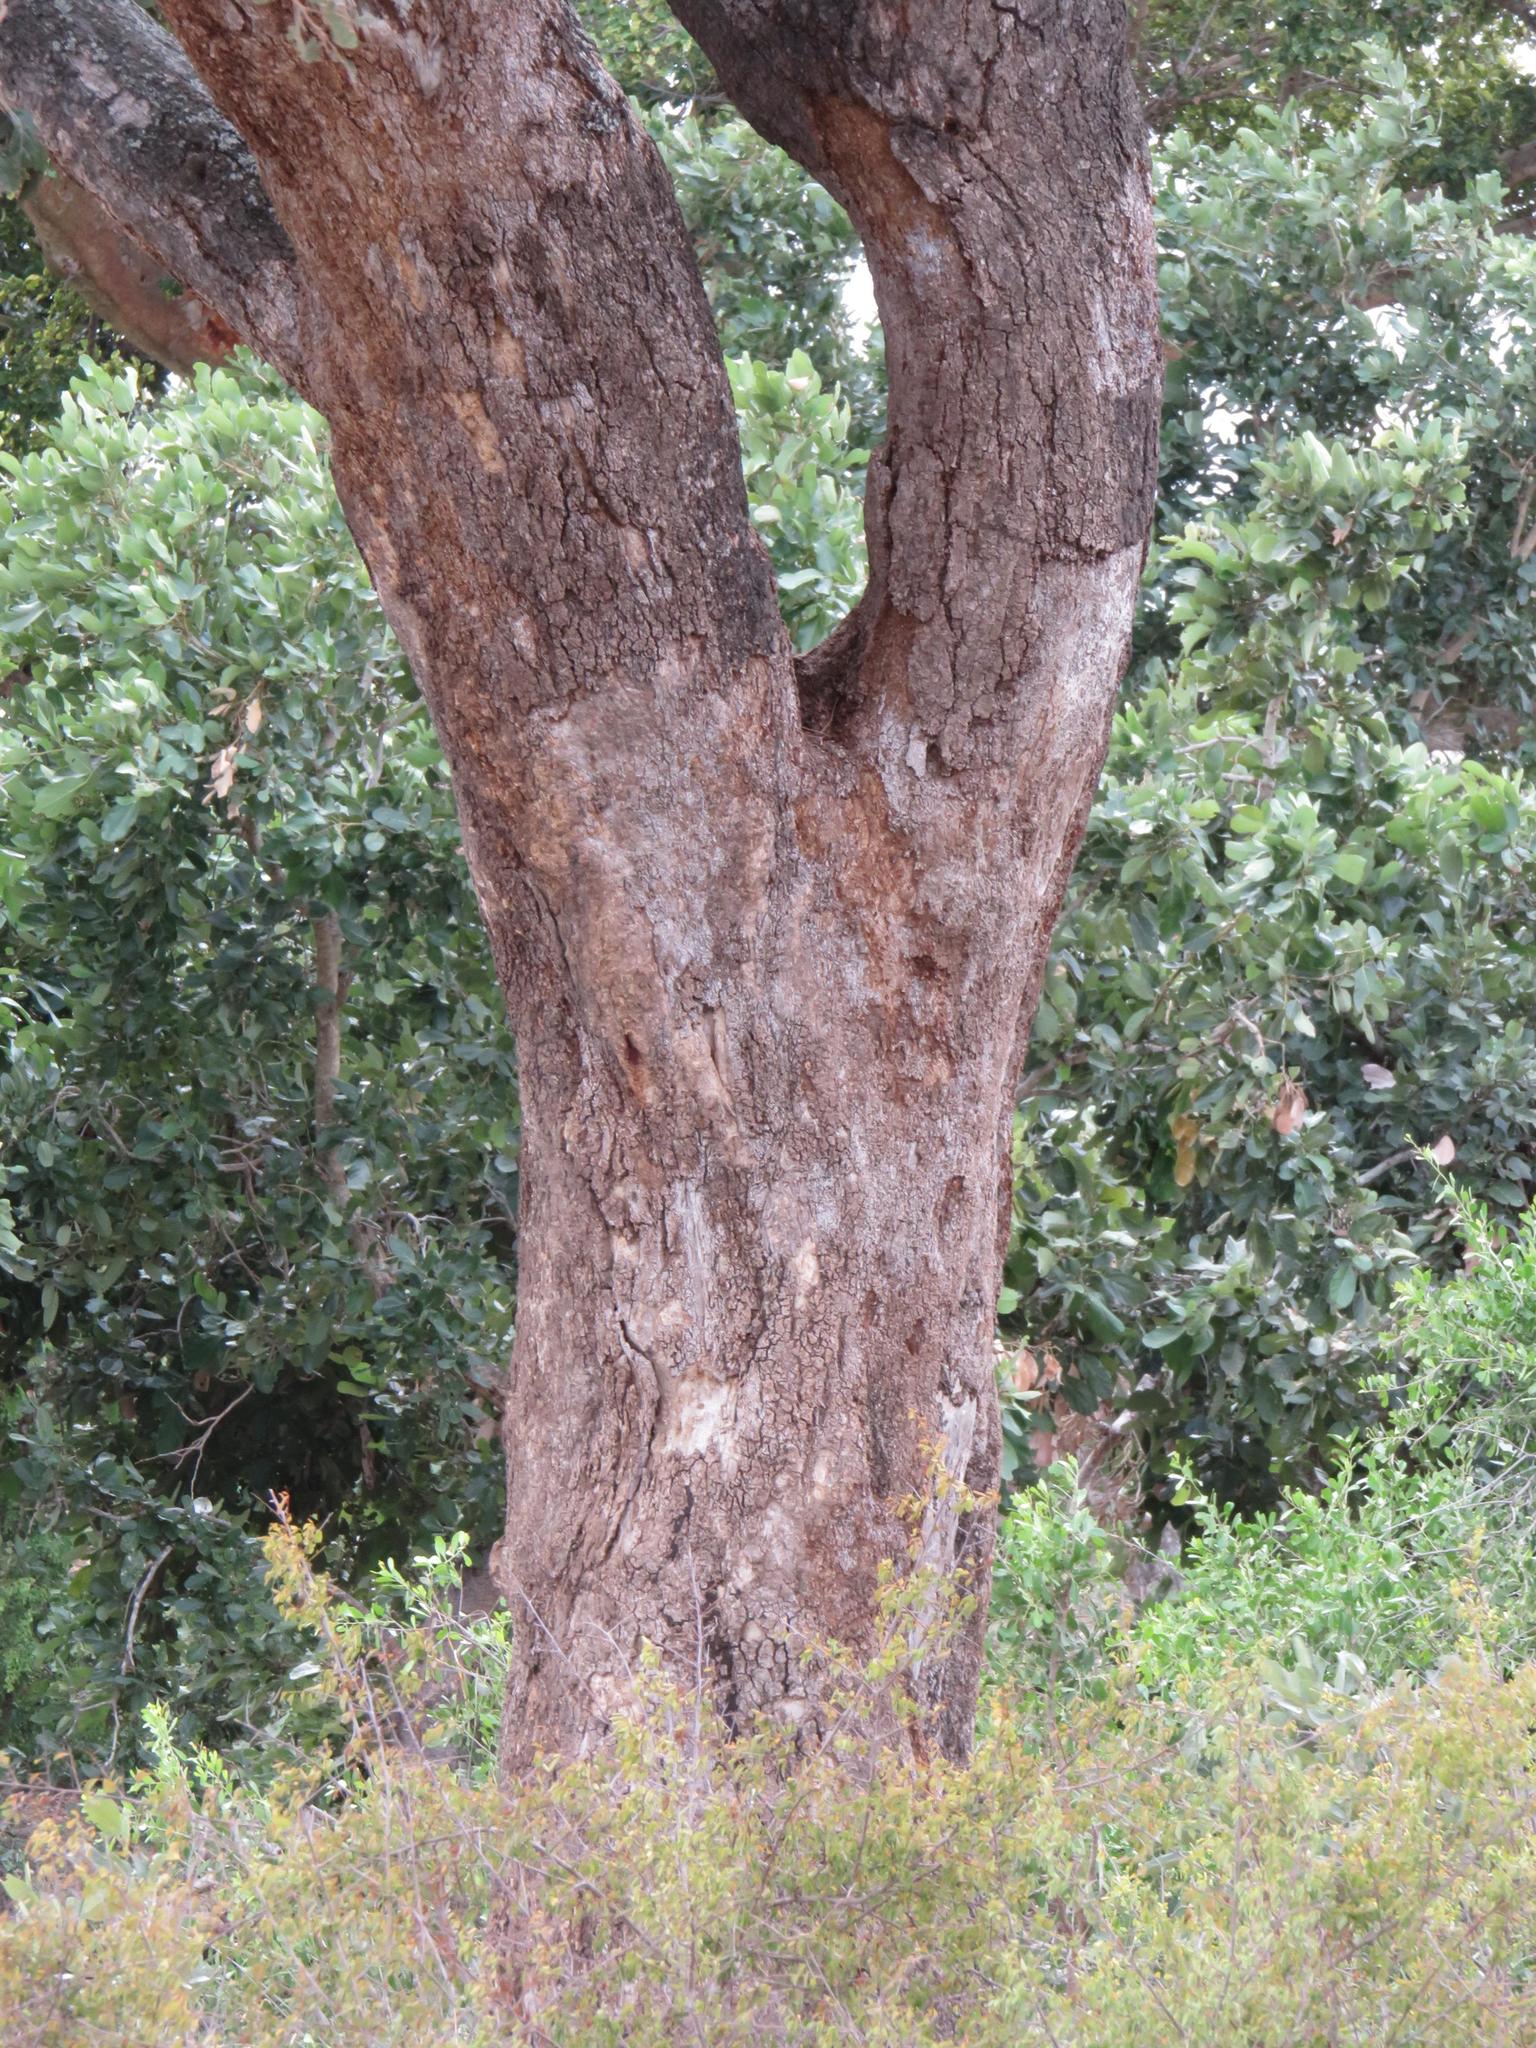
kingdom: Plantae
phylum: Tracheophyta
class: Magnoliopsida
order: Fabales
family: Fabaceae
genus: Philenoptera
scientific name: Philenoptera violacea
